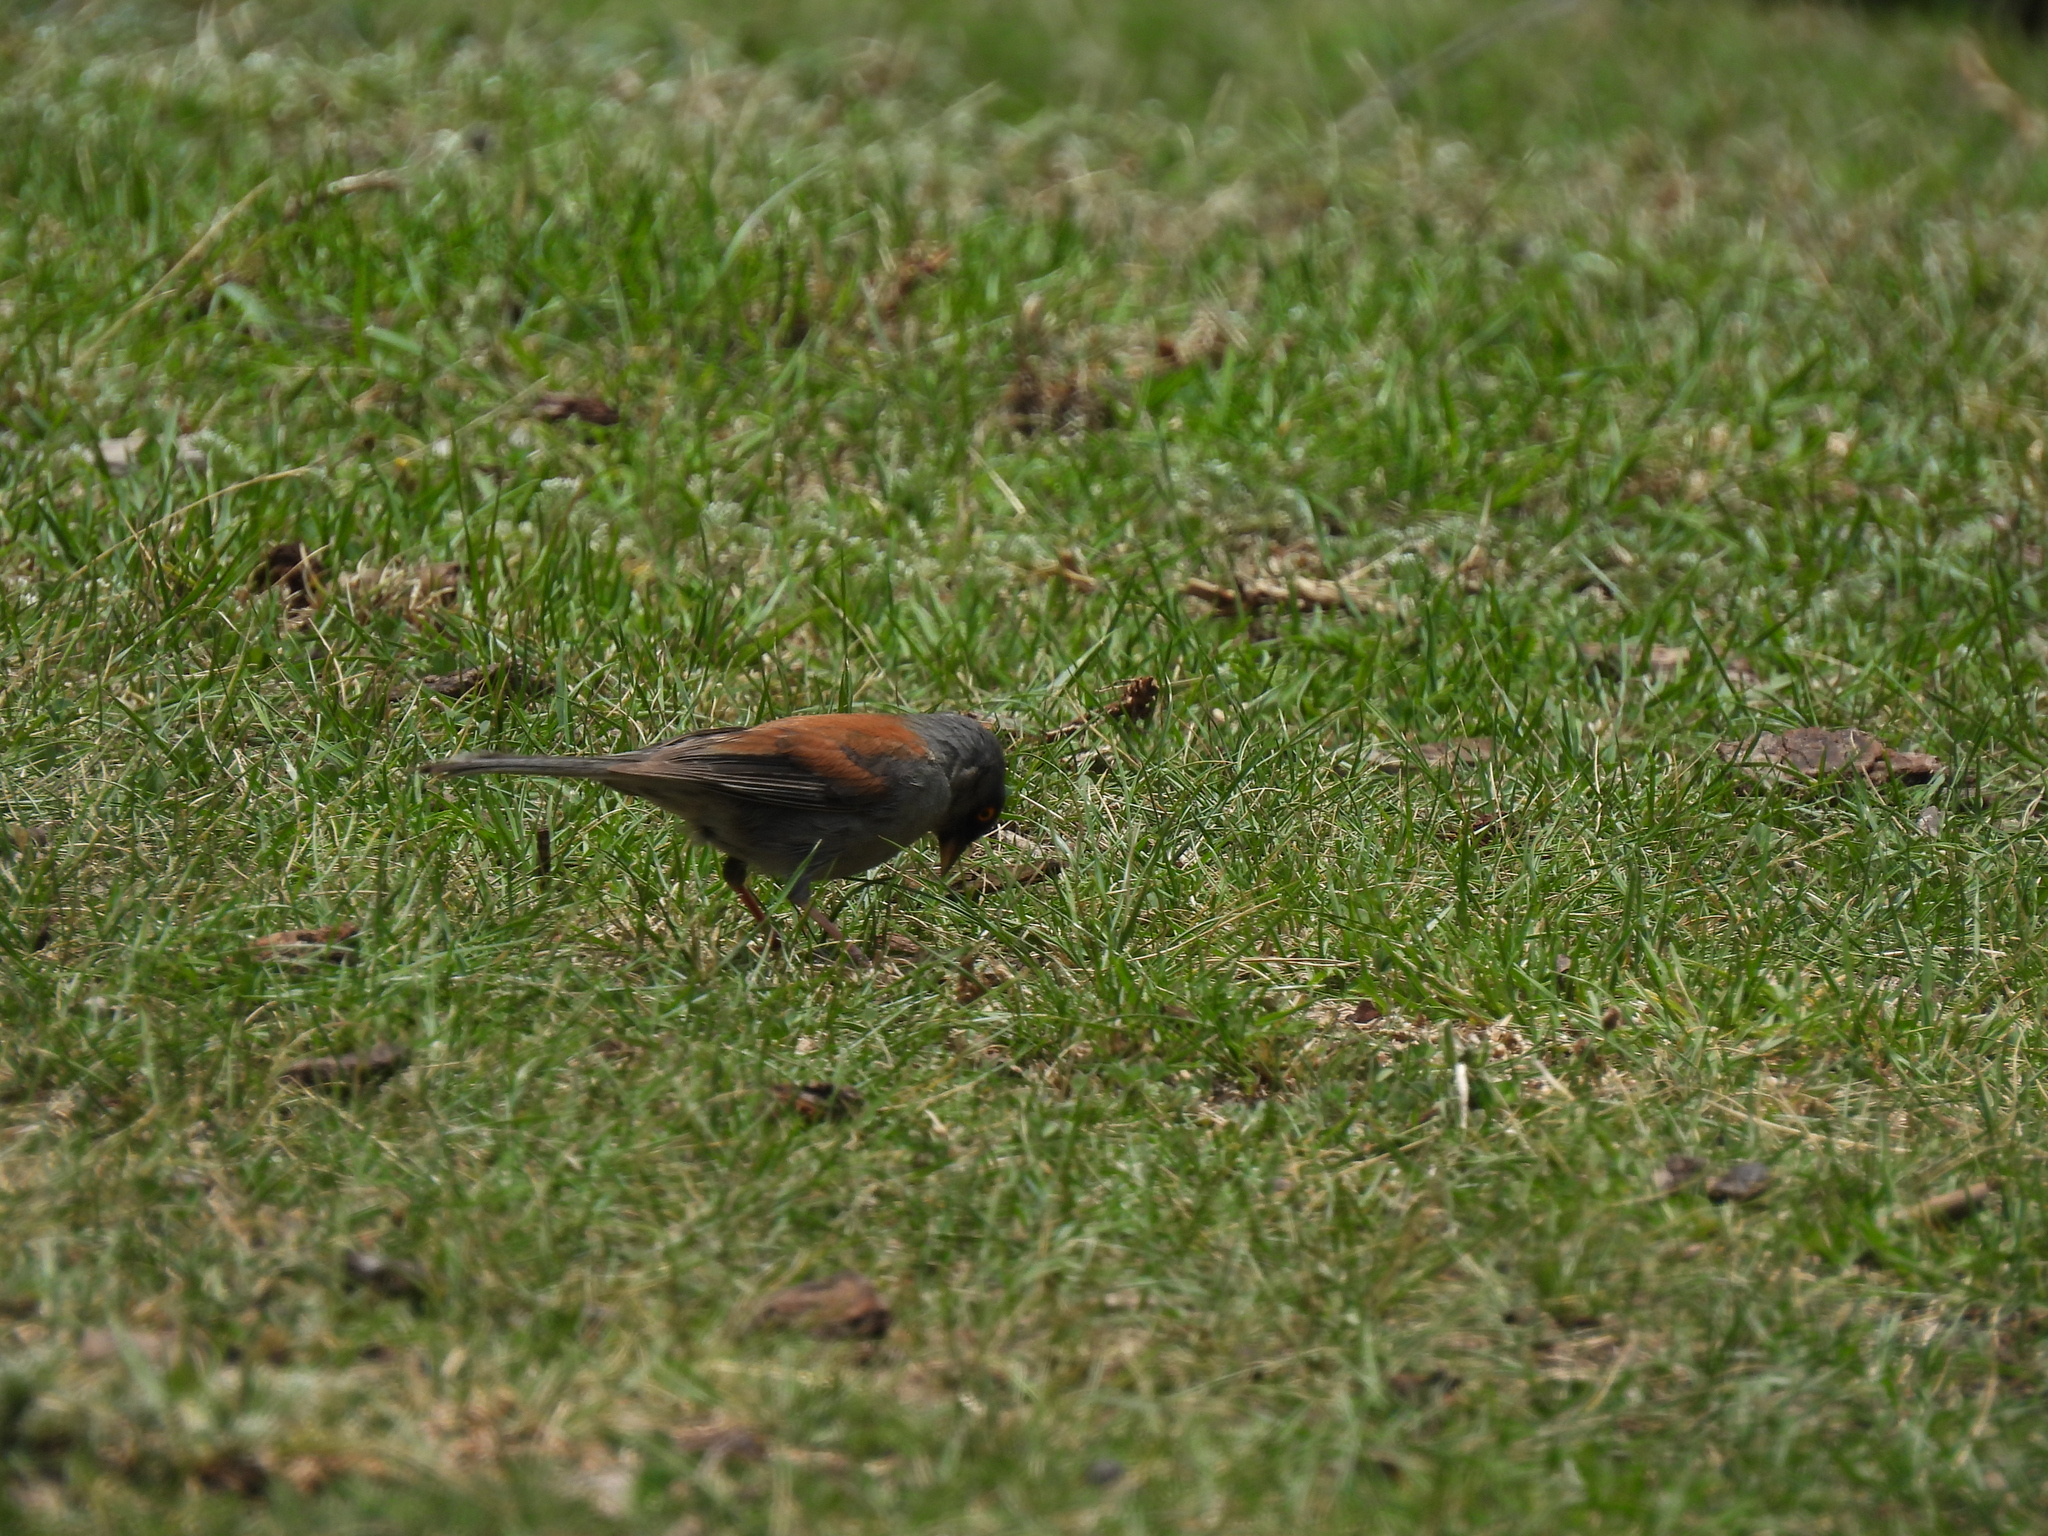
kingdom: Animalia
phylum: Chordata
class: Aves
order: Passeriformes
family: Passerellidae
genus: Junco
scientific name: Junco phaeonotus
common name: Yellow-eyed junco
